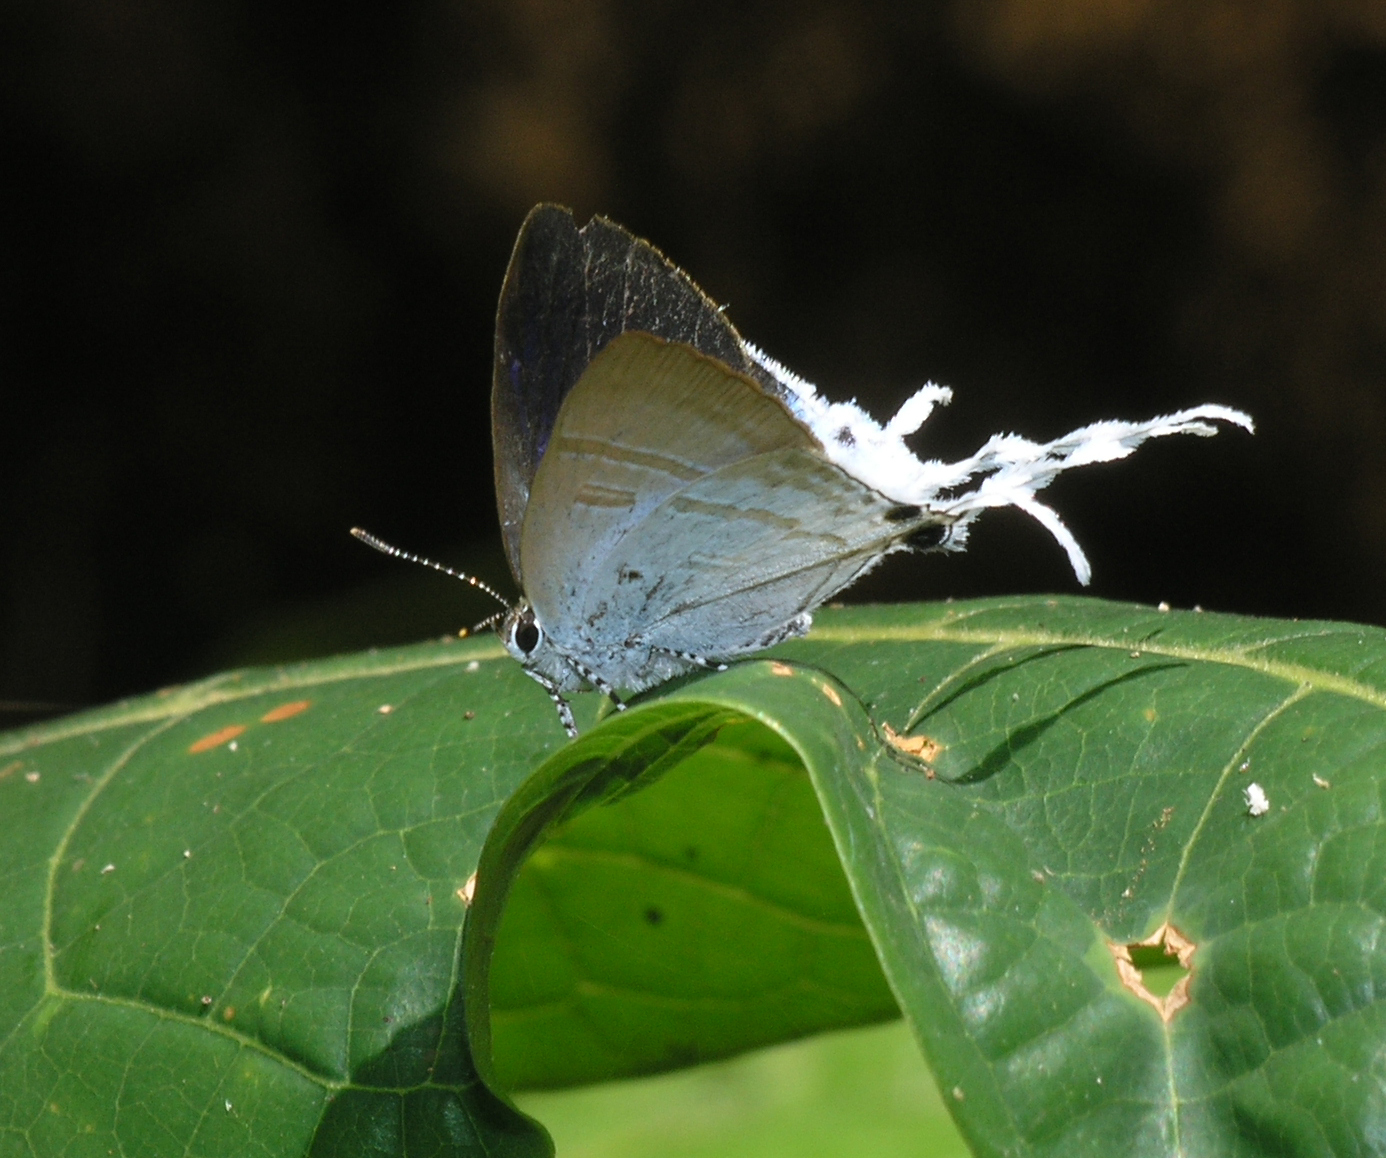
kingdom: Animalia
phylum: Arthropoda
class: Insecta
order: Lepidoptera
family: Lycaenidae
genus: Zeltus
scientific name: Zeltus amasa
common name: Fluffy tit
